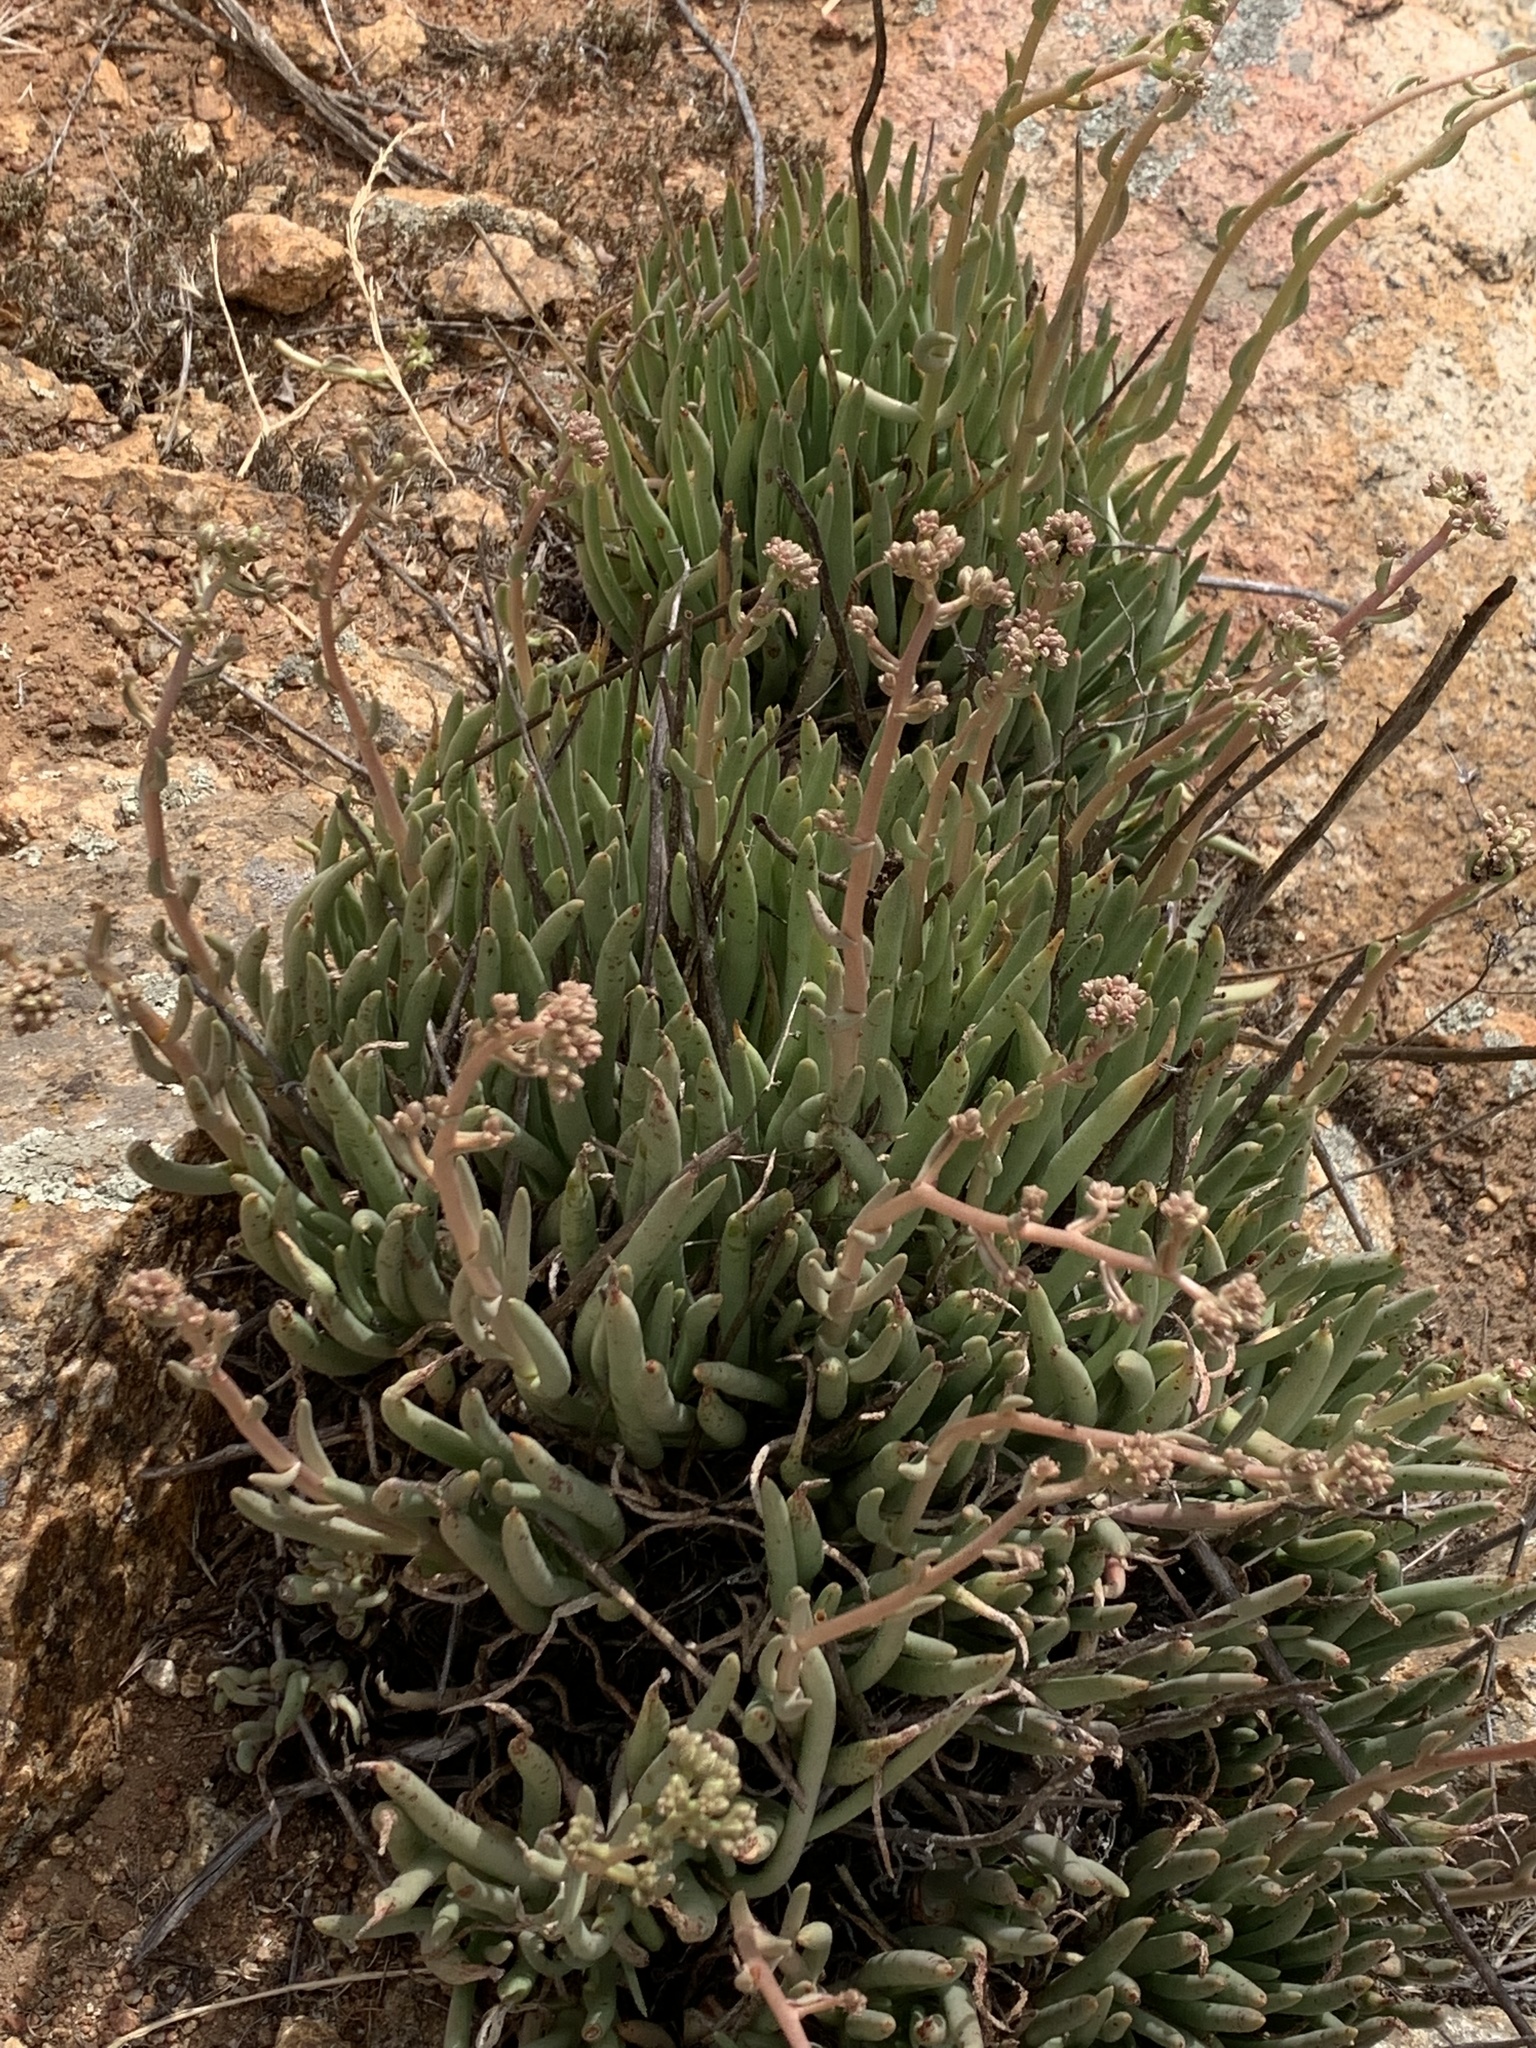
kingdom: Plantae
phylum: Tracheophyta
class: Magnoliopsida
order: Saxifragales
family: Crassulaceae
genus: Dudleya
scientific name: Dudleya edulis
